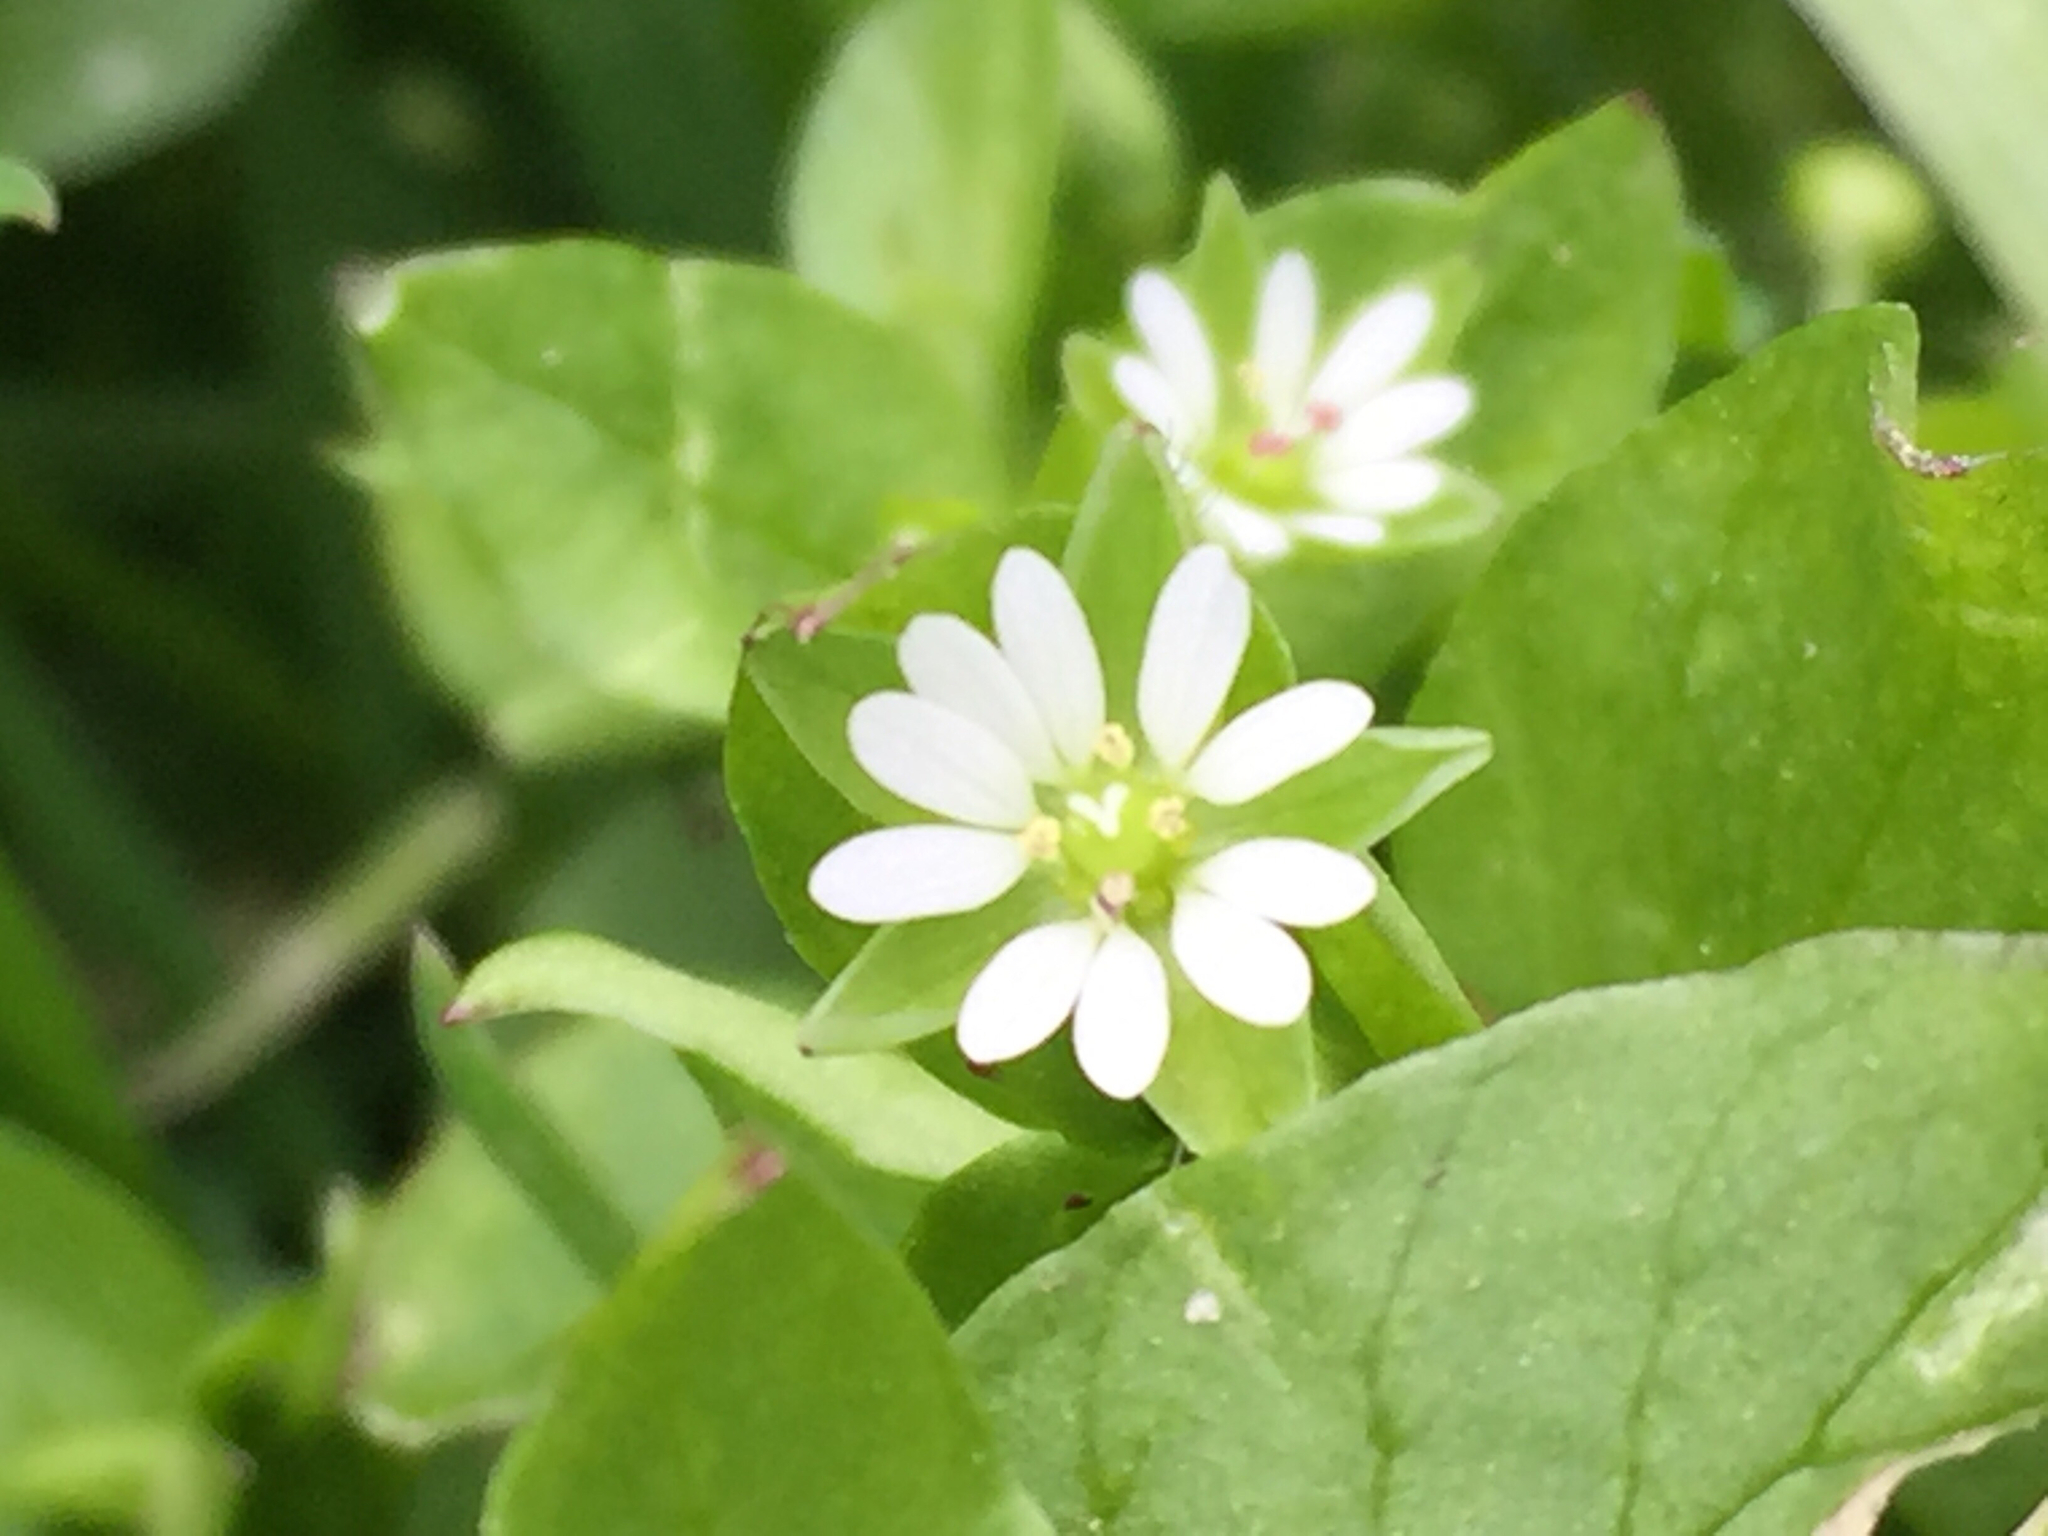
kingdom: Plantae
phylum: Tracheophyta
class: Magnoliopsida
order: Caryophyllales
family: Caryophyllaceae
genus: Stellaria
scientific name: Stellaria media
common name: Common chickweed
